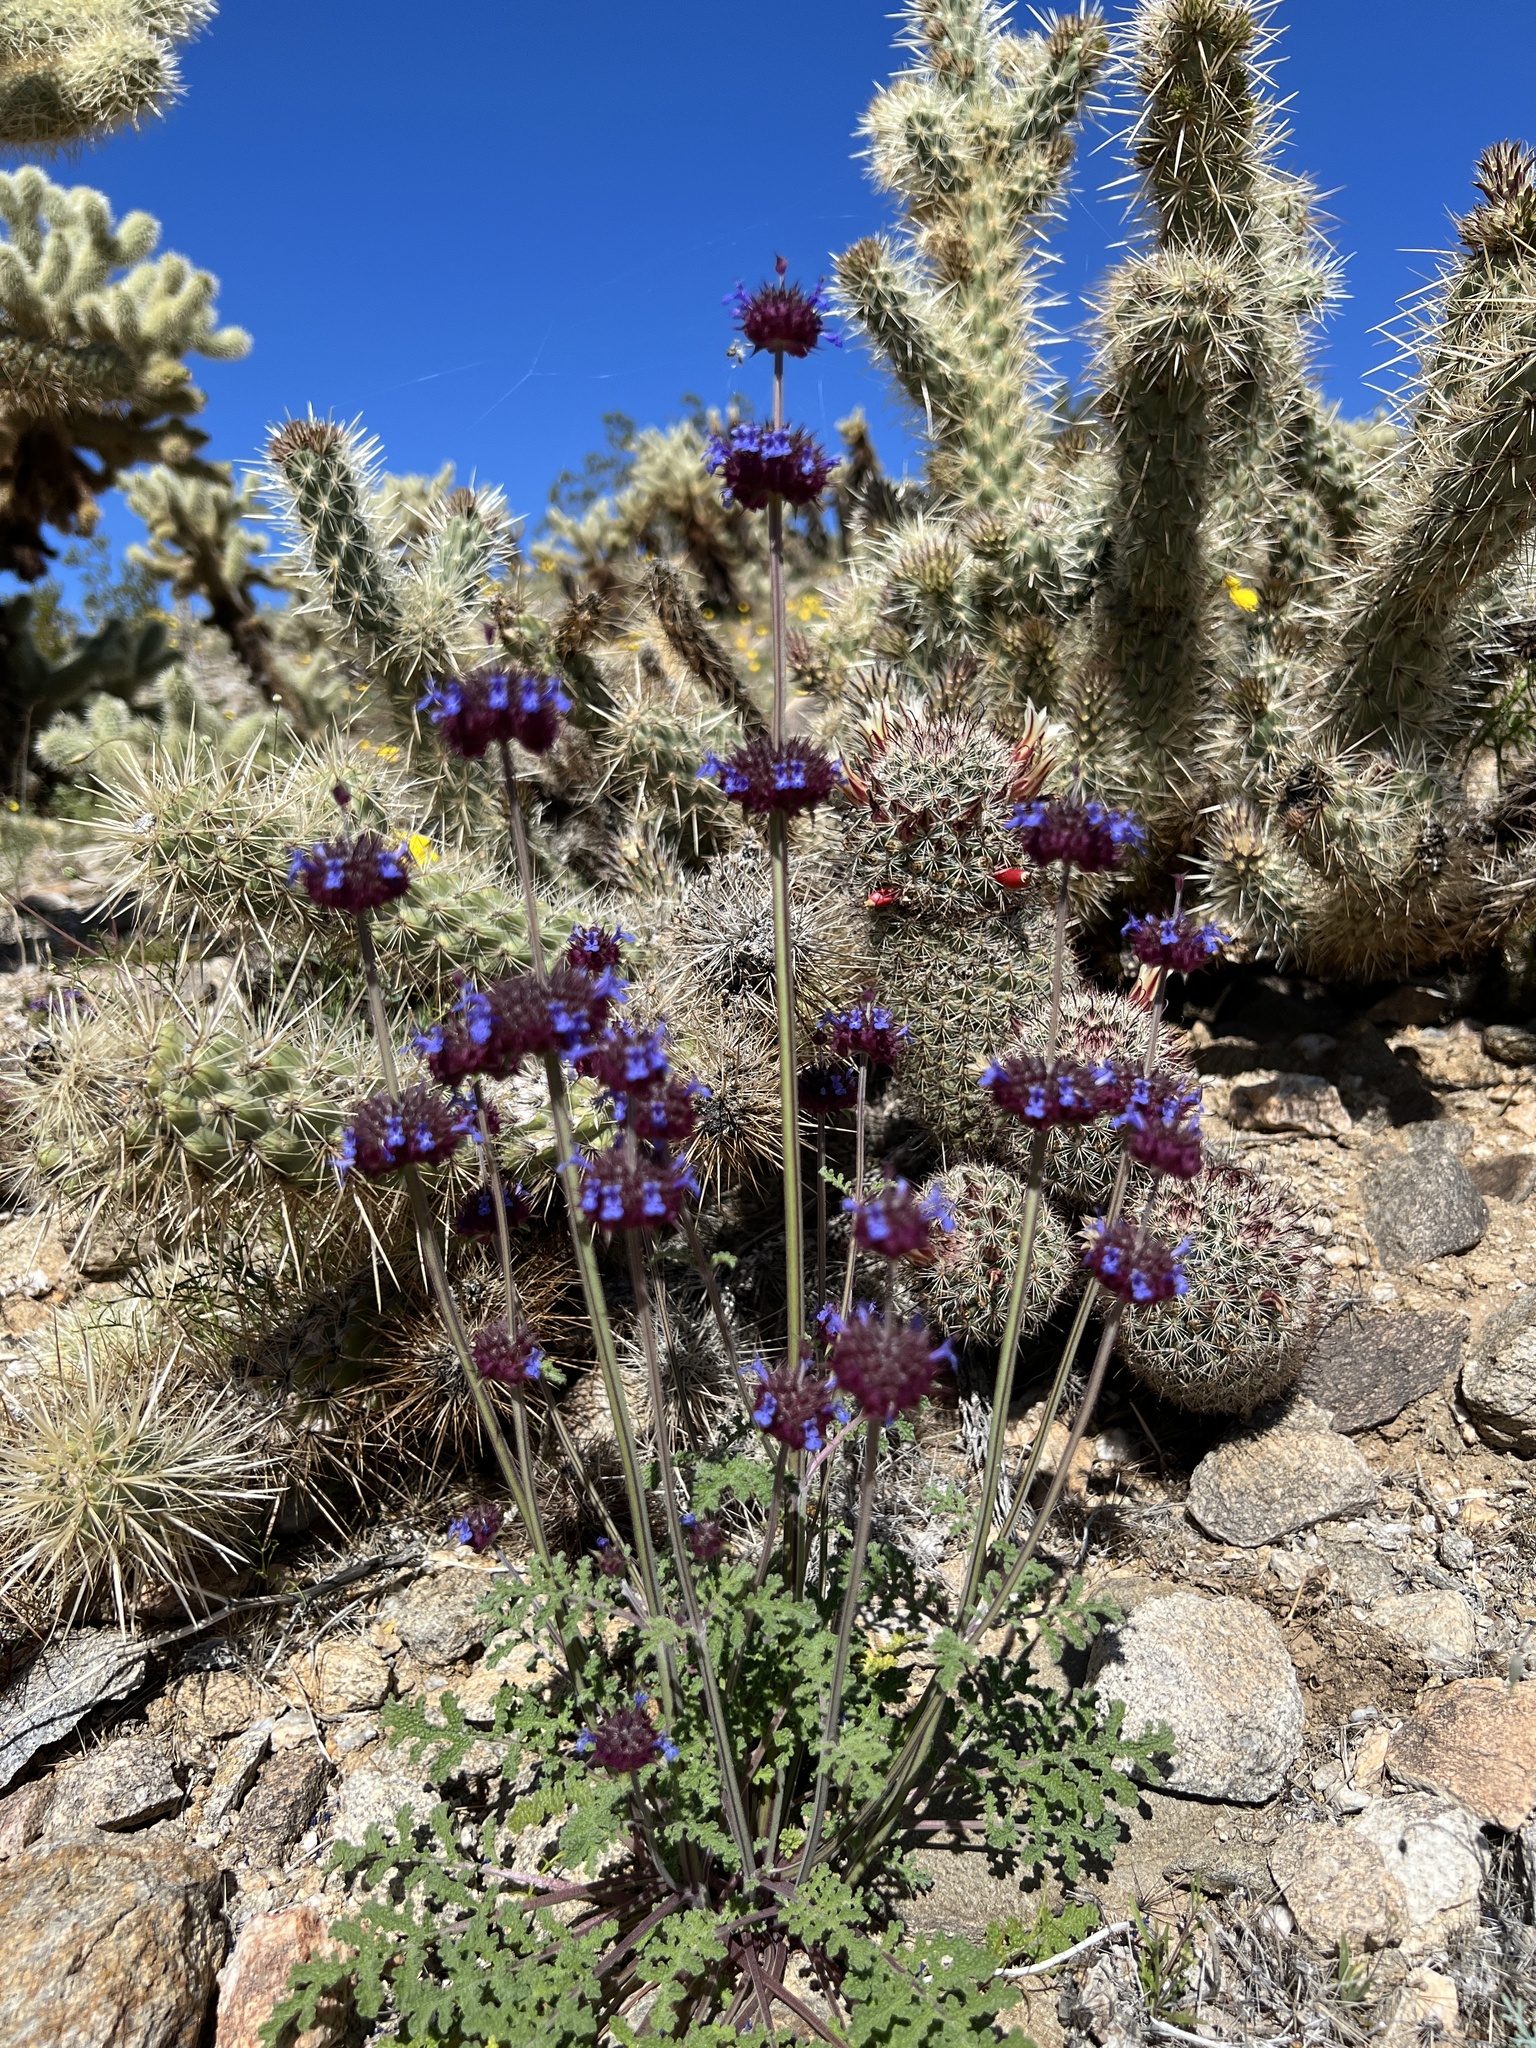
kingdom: Plantae
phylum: Tracheophyta
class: Magnoliopsida
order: Lamiales
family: Lamiaceae
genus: Salvia
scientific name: Salvia columbariae
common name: Chia
